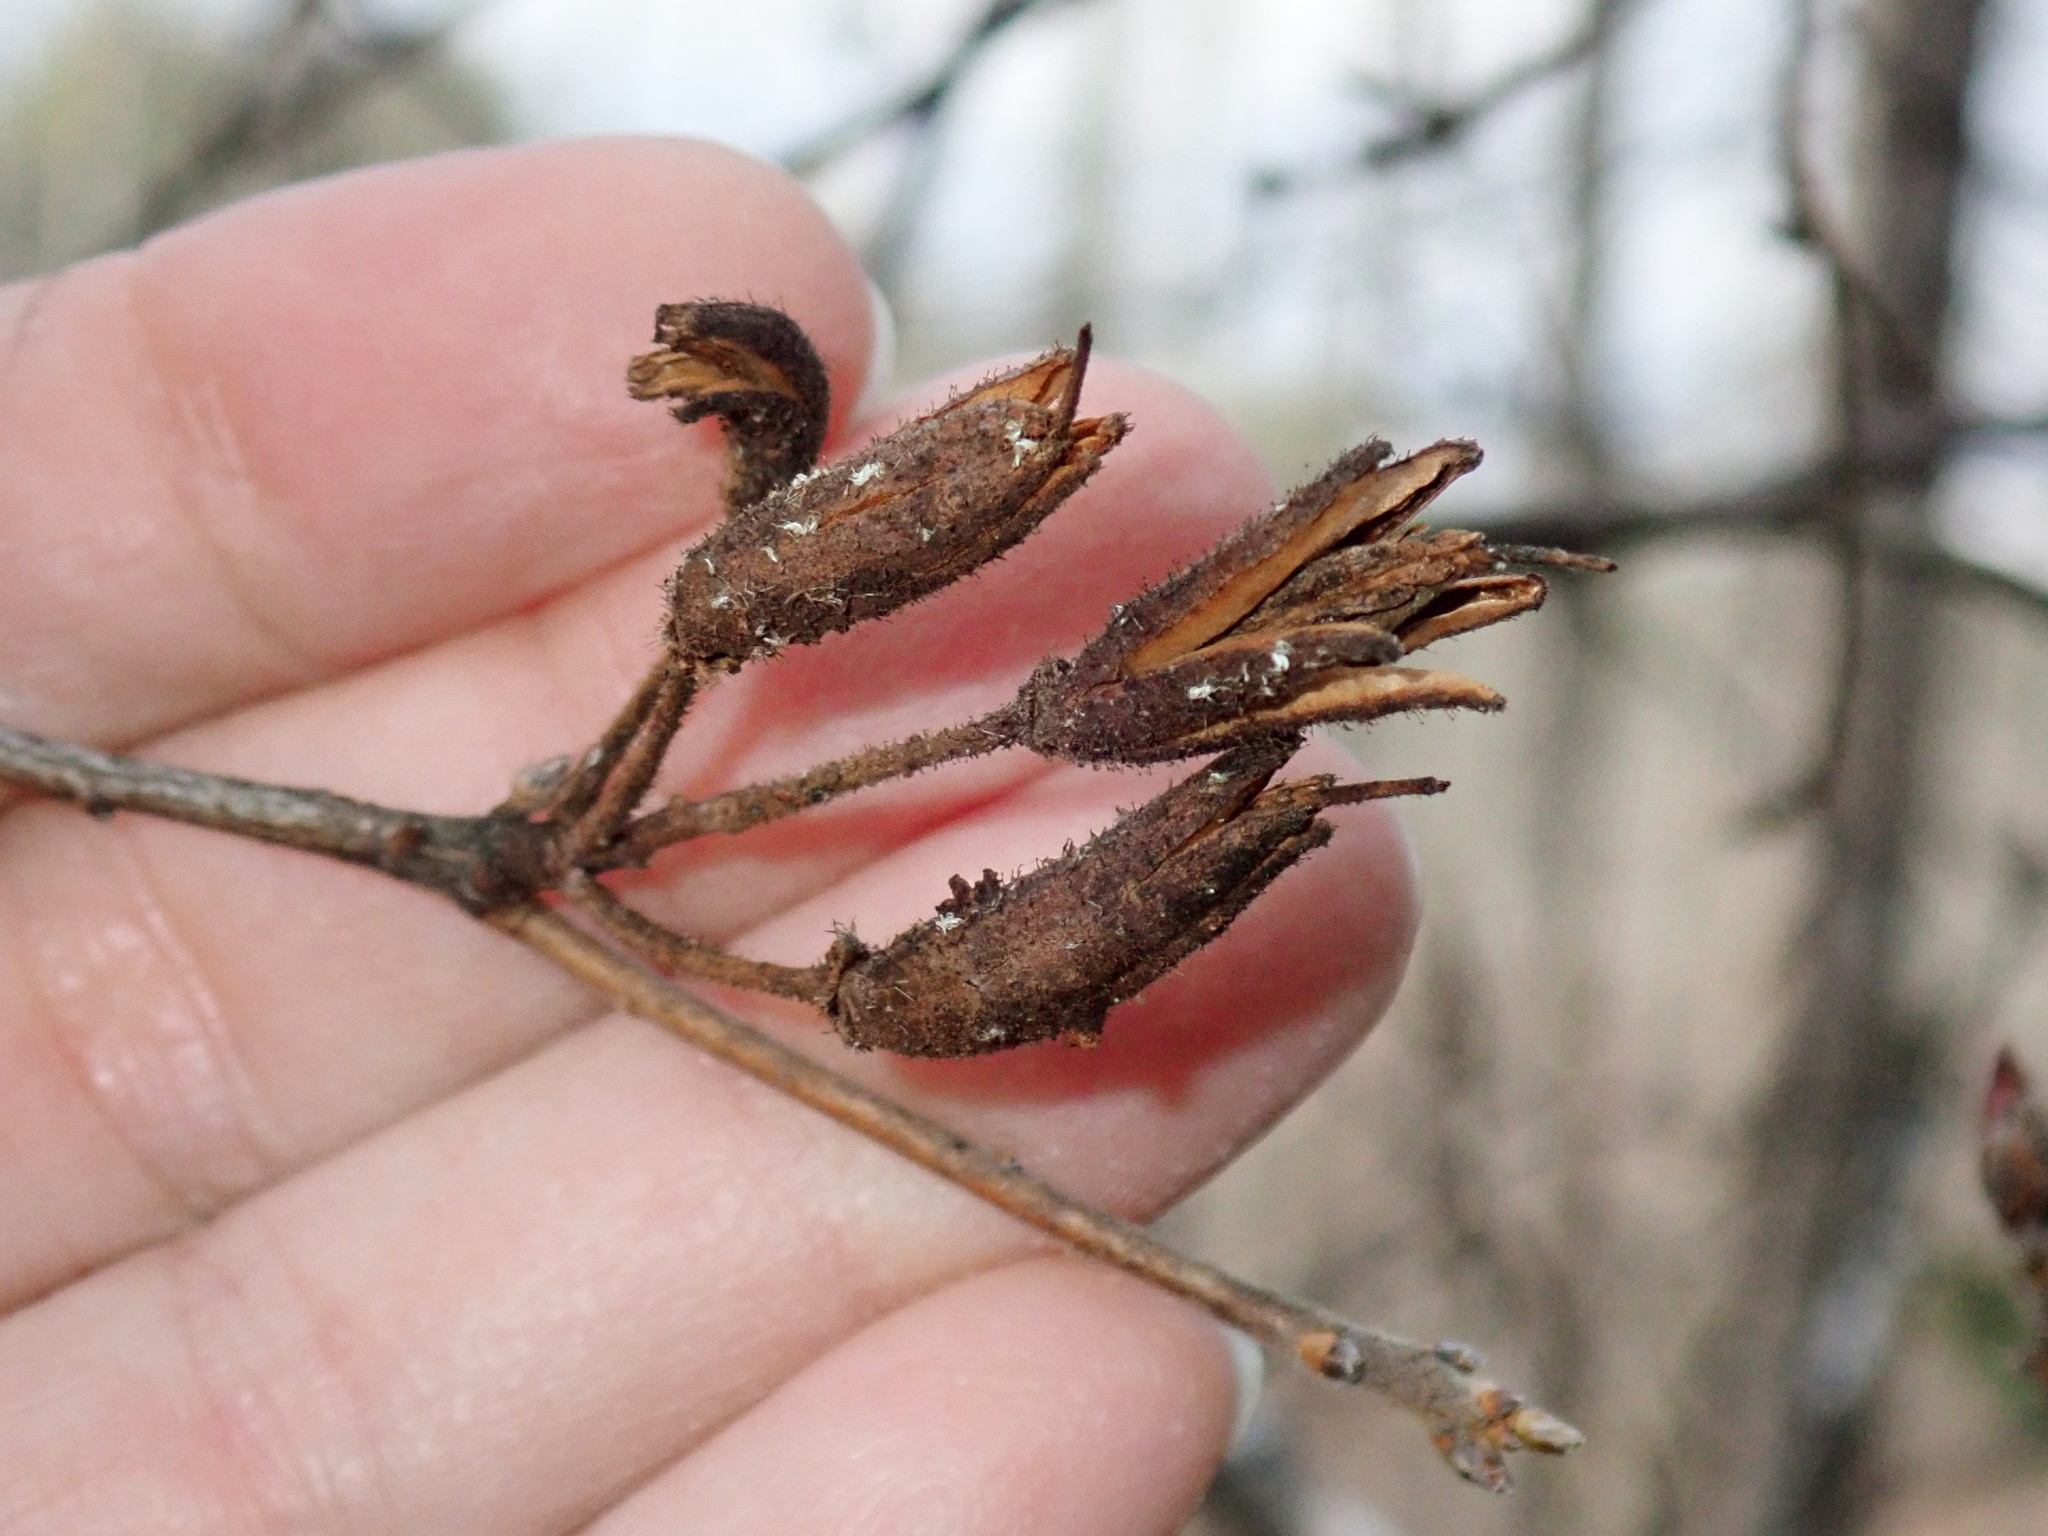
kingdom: Plantae
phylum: Tracheophyta
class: Magnoliopsida
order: Ericales
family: Ericaceae
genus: Rhododendron
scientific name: Rhododendron viscosum
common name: Clammy azalea
